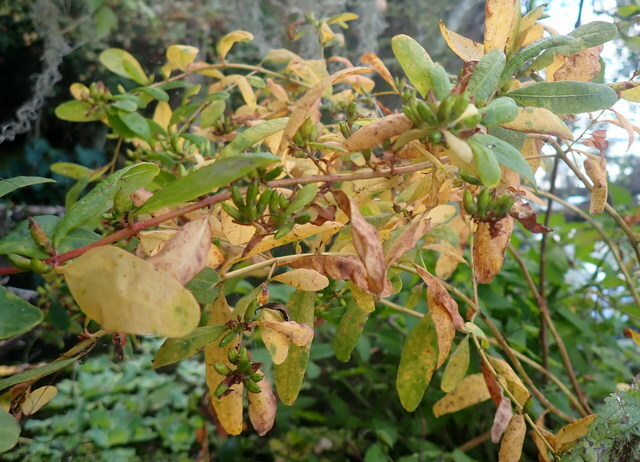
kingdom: Plantae
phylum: Tracheophyta
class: Magnoliopsida
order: Malpighiales
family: Hypericaceae
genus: Triadenum
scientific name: Triadenum walteri
